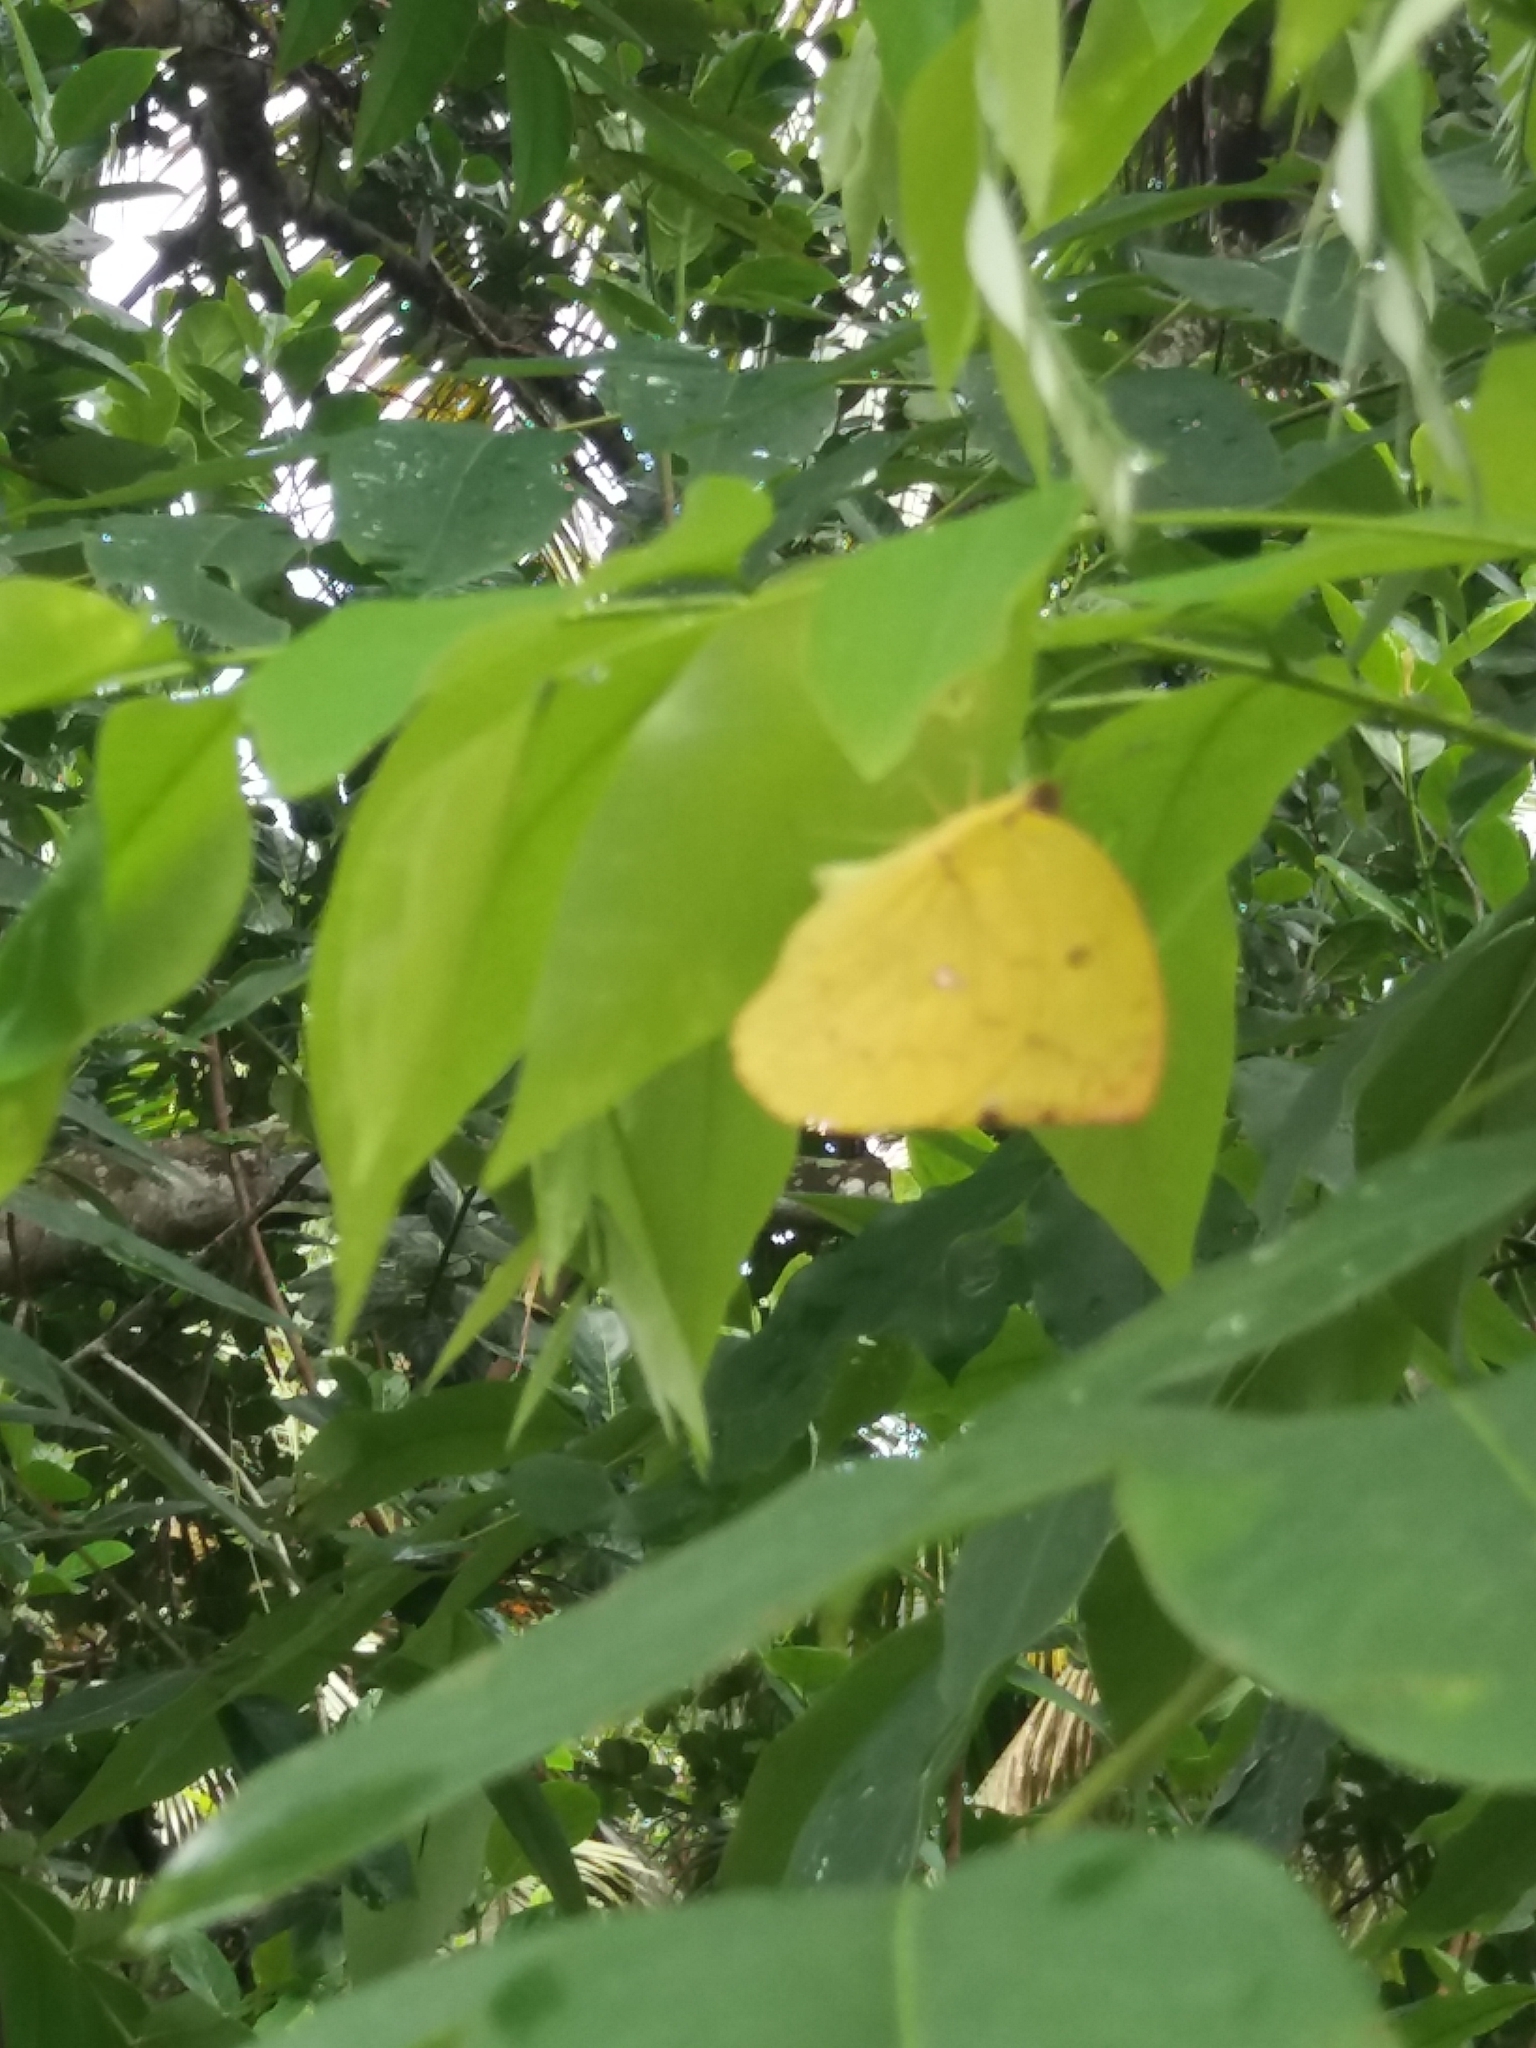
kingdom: Animalia
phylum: Arthropoda
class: Insecta
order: Lepidoptera
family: Pieridae
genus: Catopsilia
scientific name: Catopsilia pomona
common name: Common emigrant
